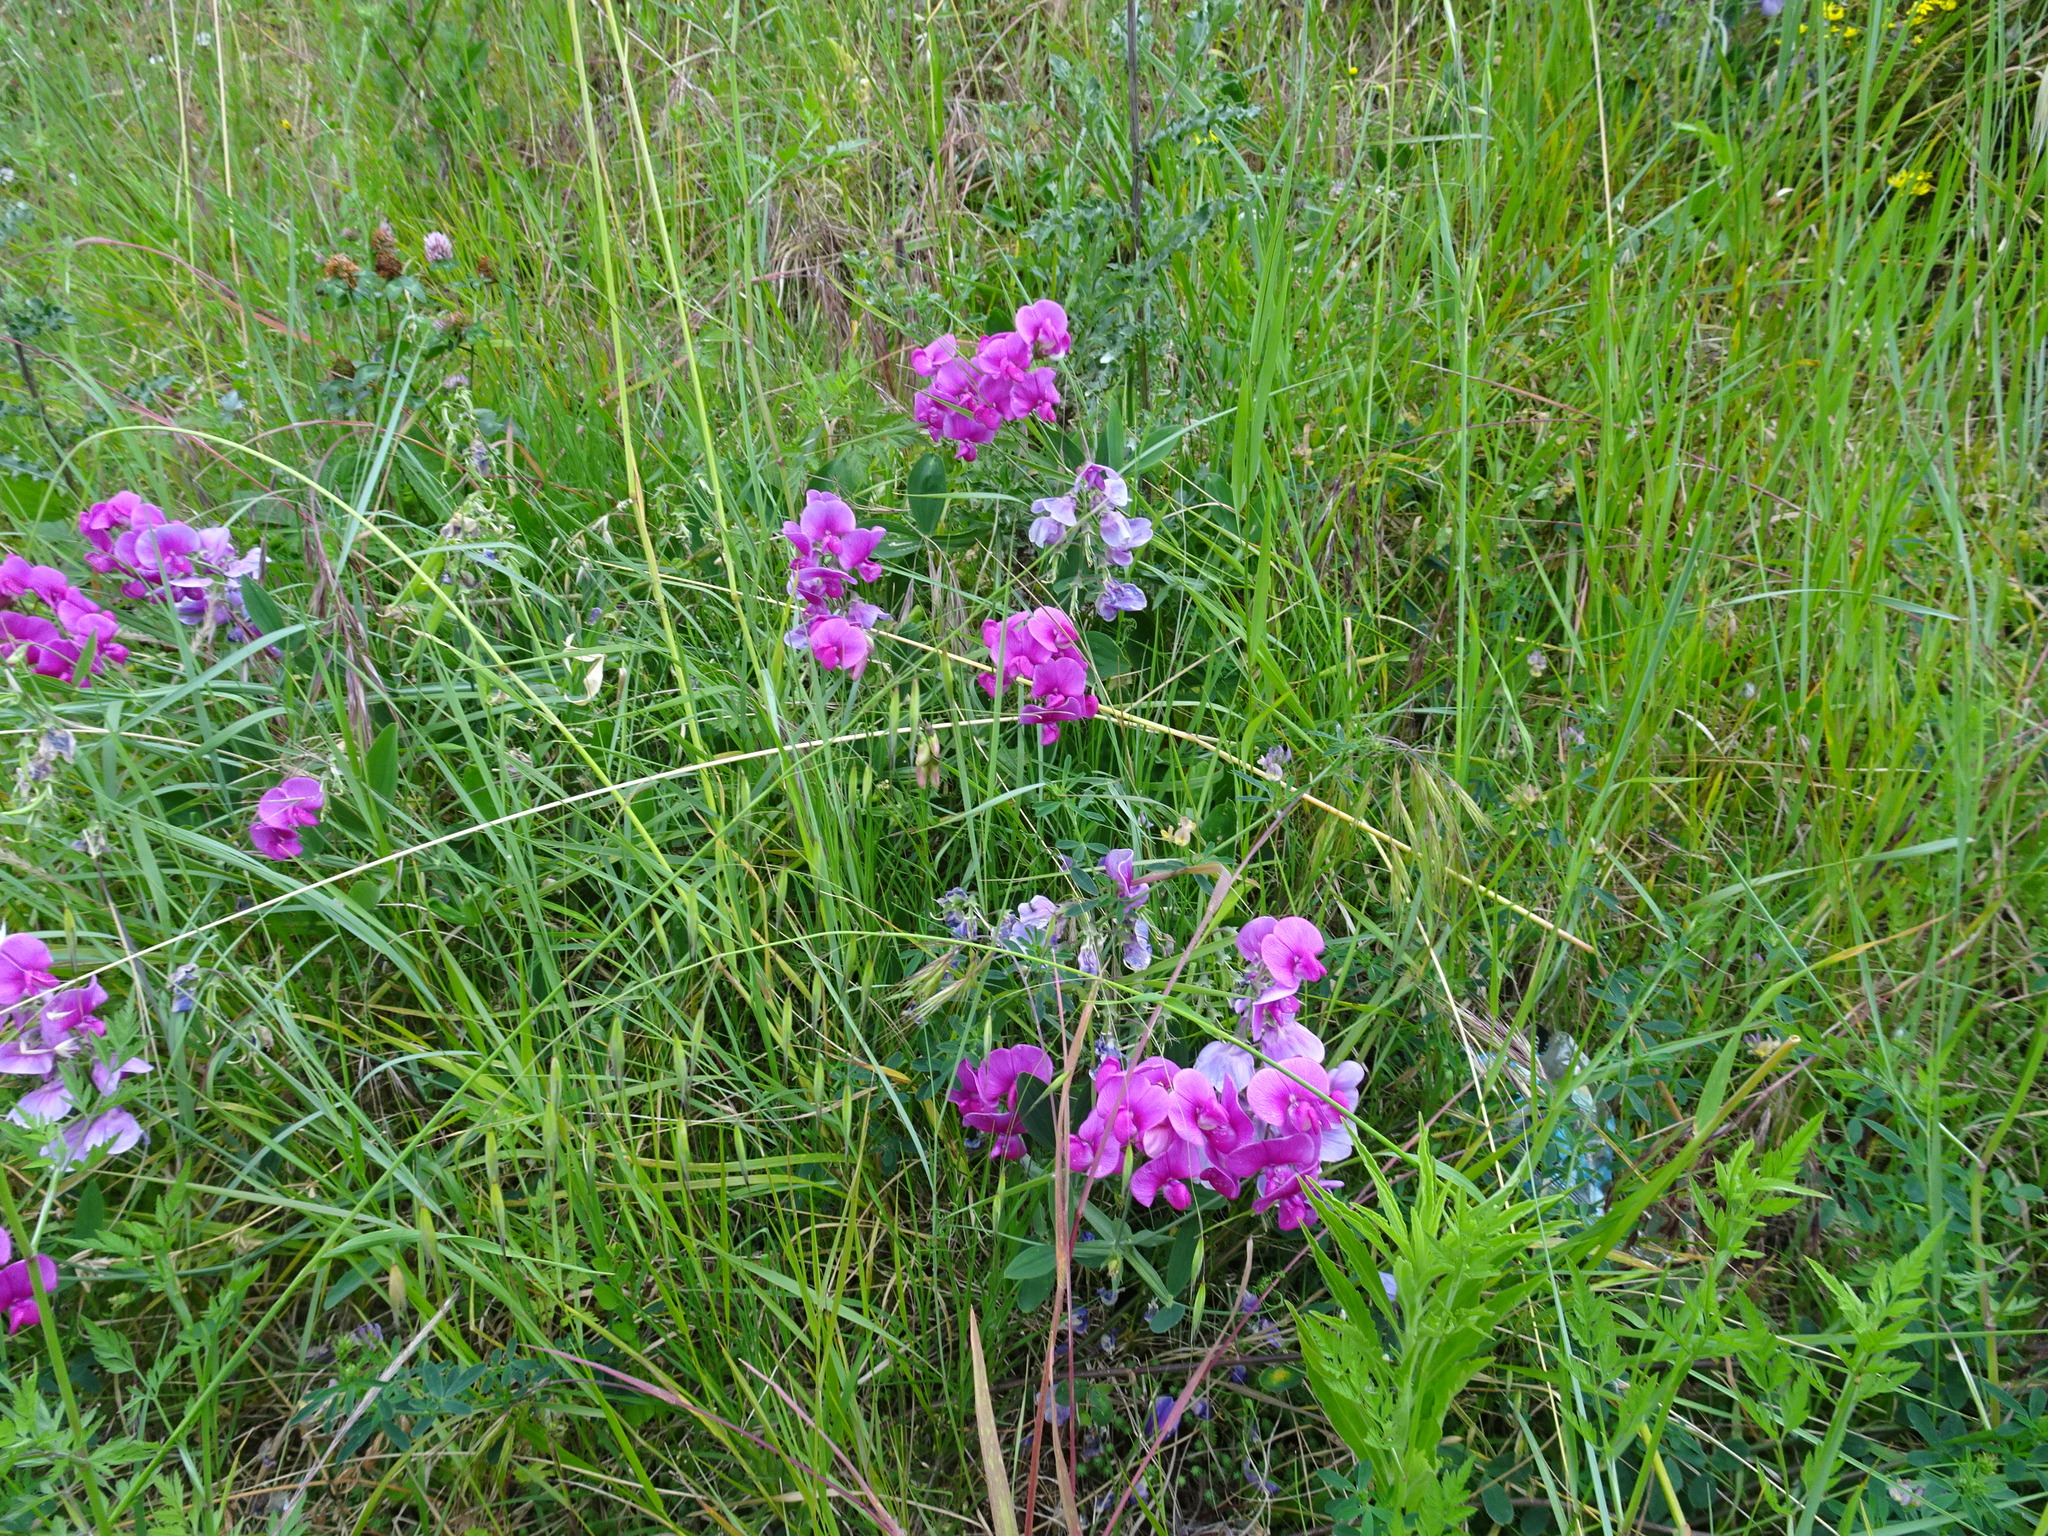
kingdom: Plantae
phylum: Tracheophyta
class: Magnoliopsida
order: Fabales
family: Fabaceae
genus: Lathyrus
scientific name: Lathyrus latifolius
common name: Perennial pea
